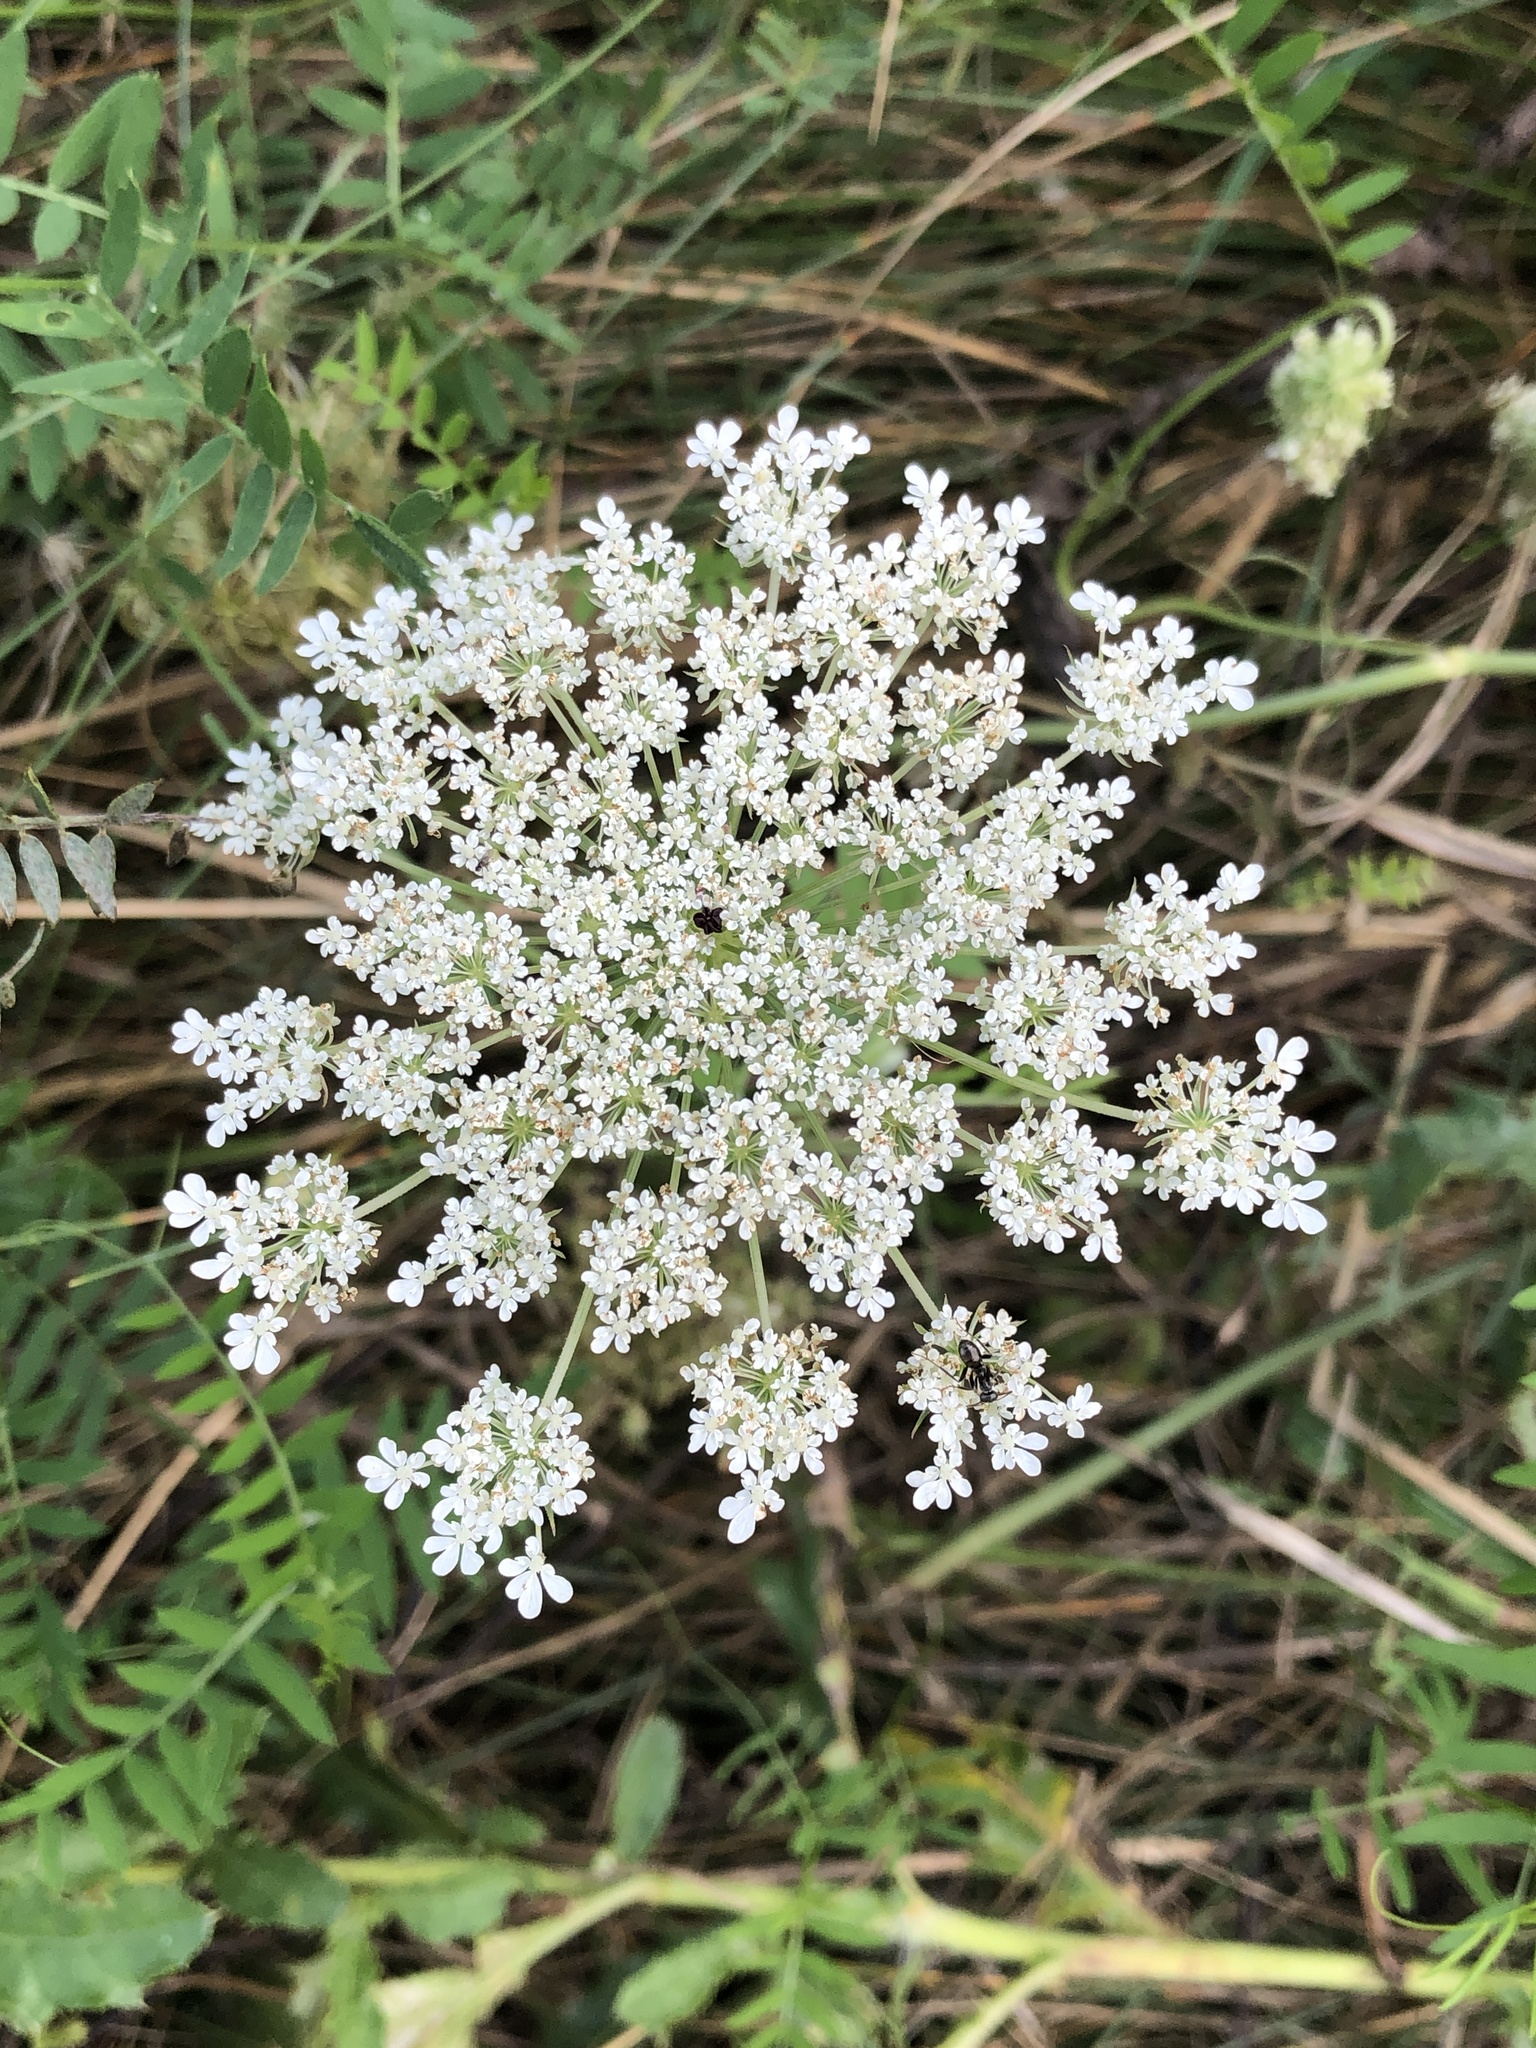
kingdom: Plantae
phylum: Tracheophyta
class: Magnoliopsida
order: Apiales
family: Apiaceae
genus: Daucus
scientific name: Daucus carota
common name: Wild carrot
